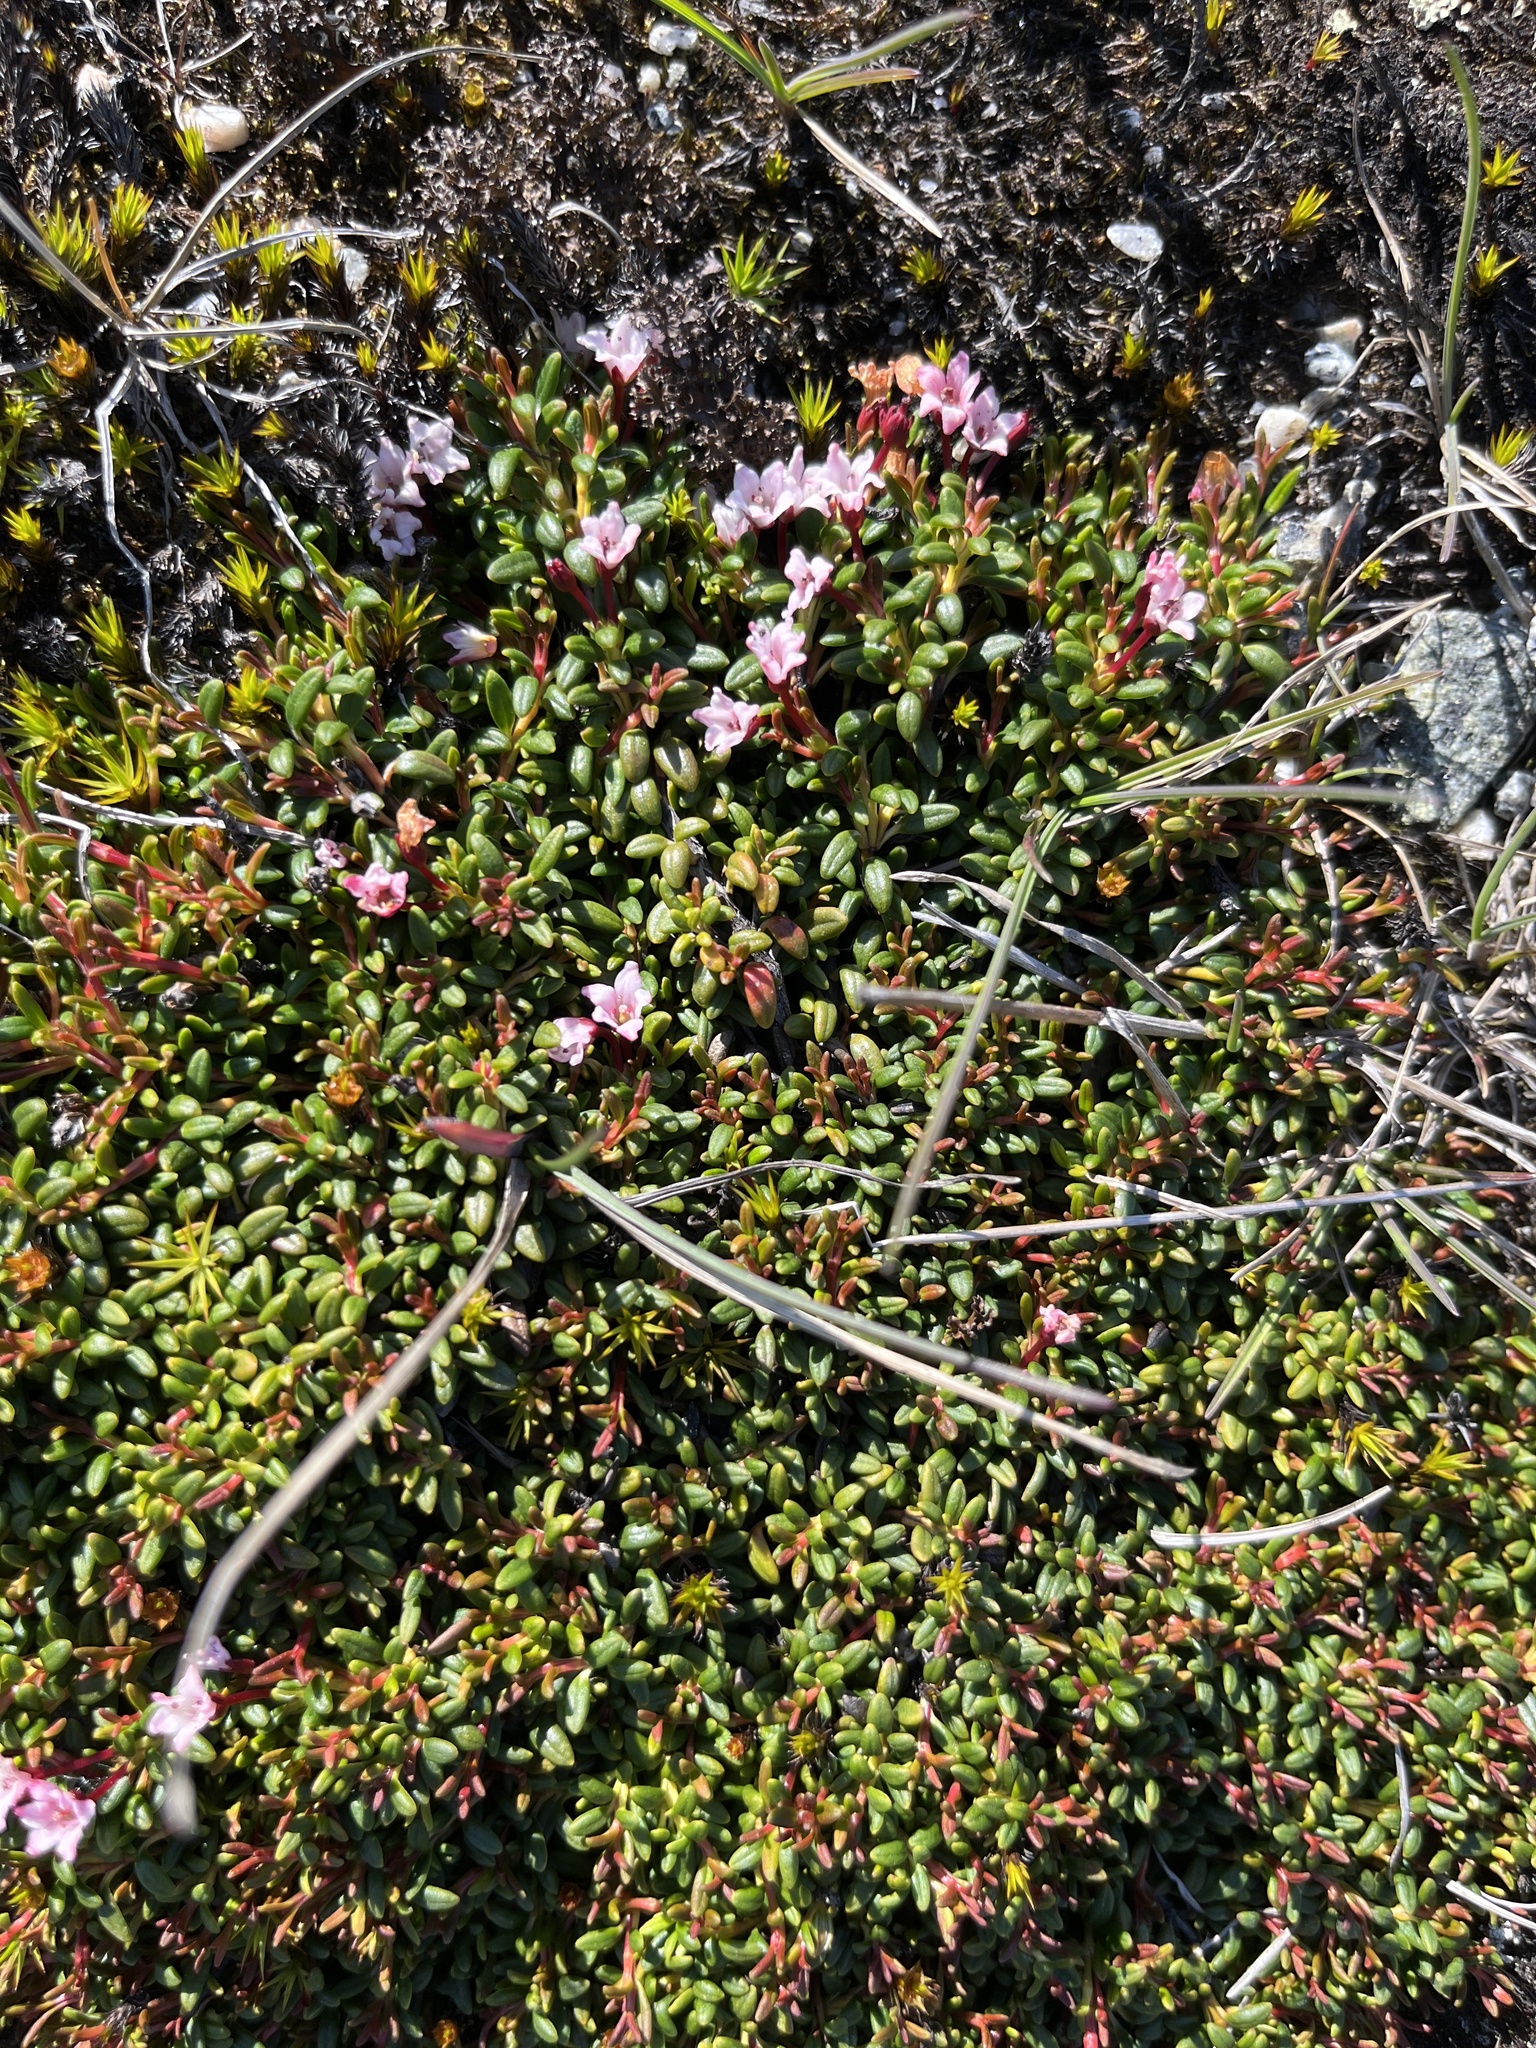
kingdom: Plantae
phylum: Tracheophyta
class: Magnoliopsida
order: Ericales
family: Ericaceae
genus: Kalmia
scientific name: Kalmia procumbens
